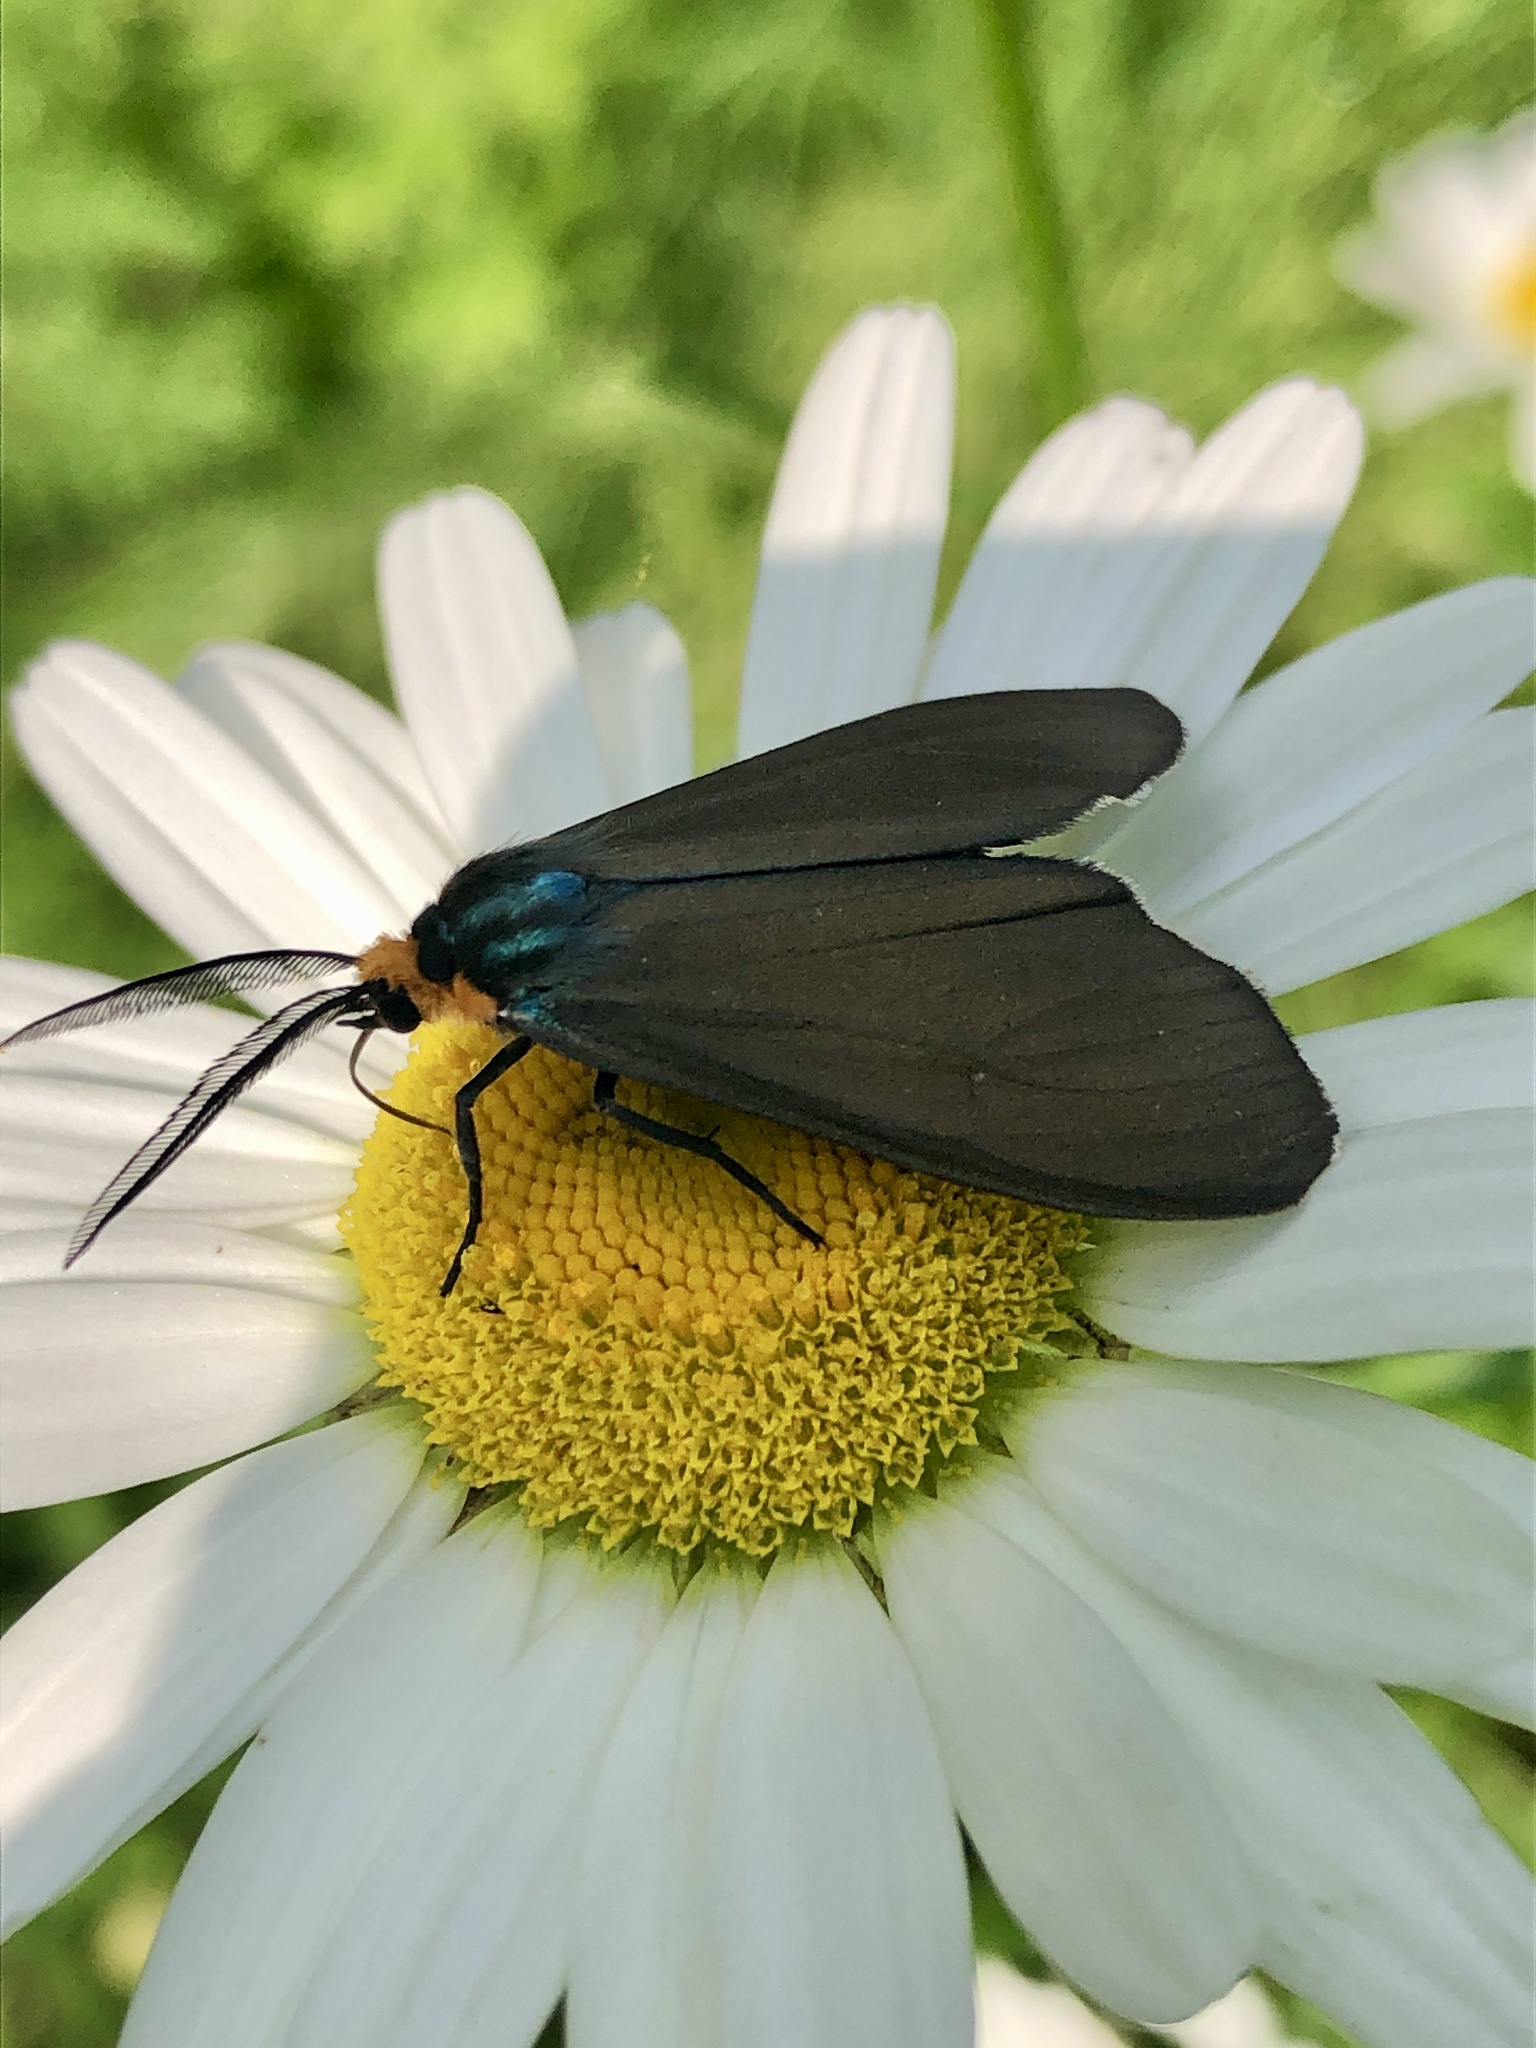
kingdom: Animalia
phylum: Arthropoda
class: Insecta
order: Lepidoptera
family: Erebidae
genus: Ctenucha
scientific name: Ctenucha virginica
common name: Virginia ctenucha moth
